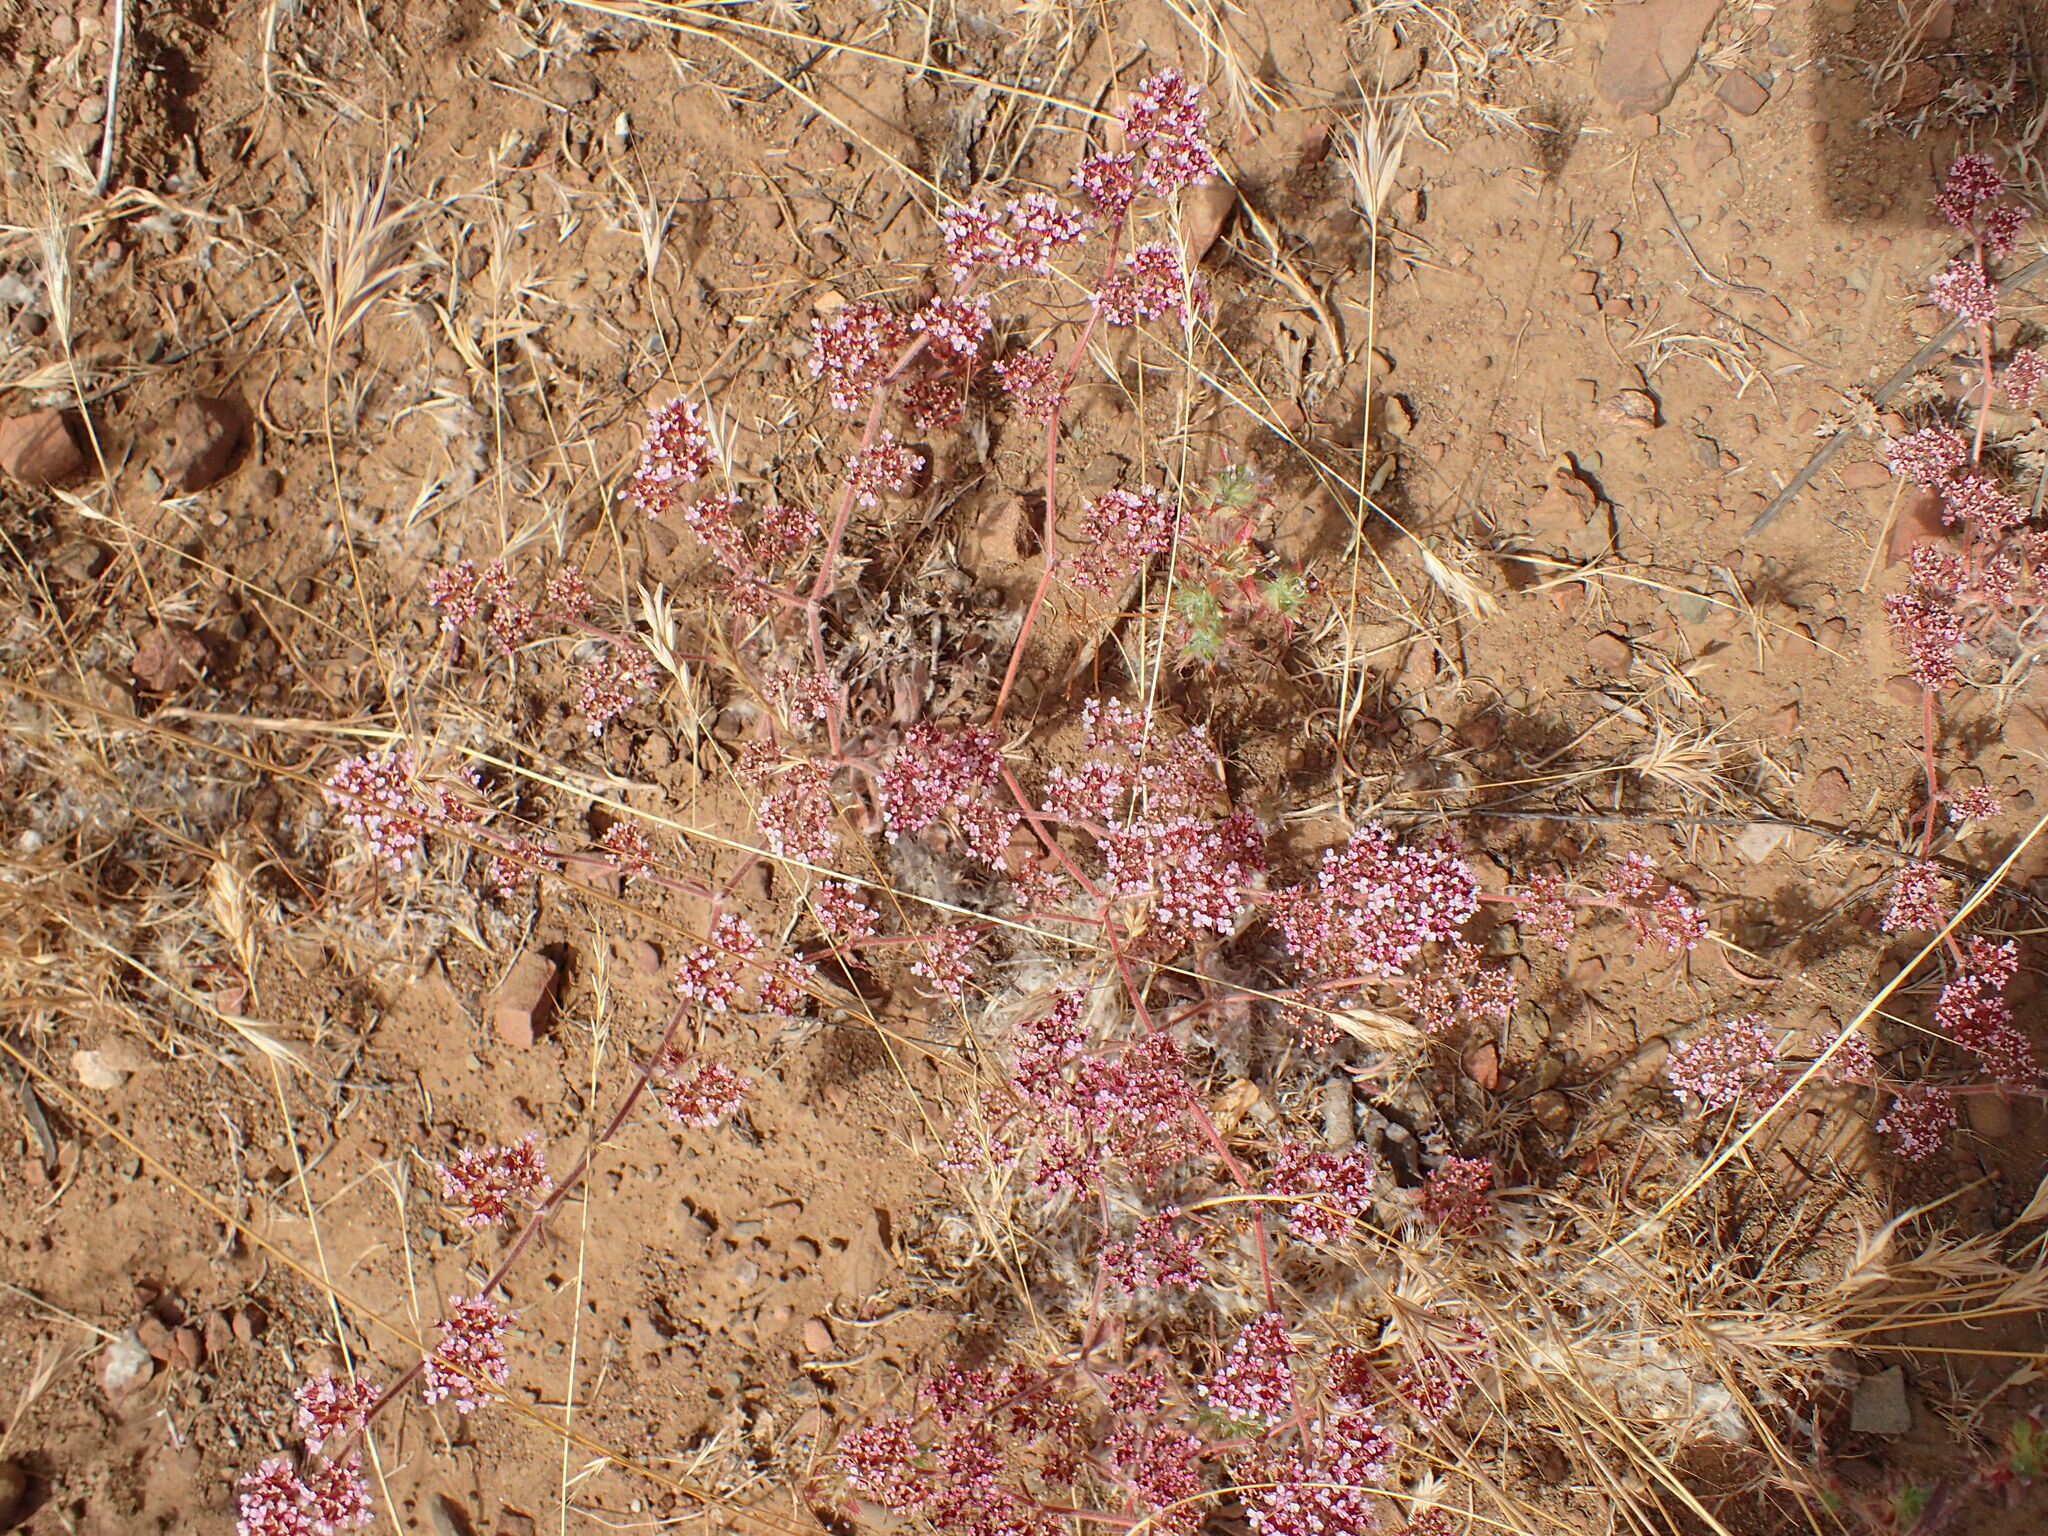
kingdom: Plantae
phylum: Tracheophyta
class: Magnoliopsida
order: Caryophyllales
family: Polygonaceae
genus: Chorizanthe
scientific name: Chorizanthe obovata
